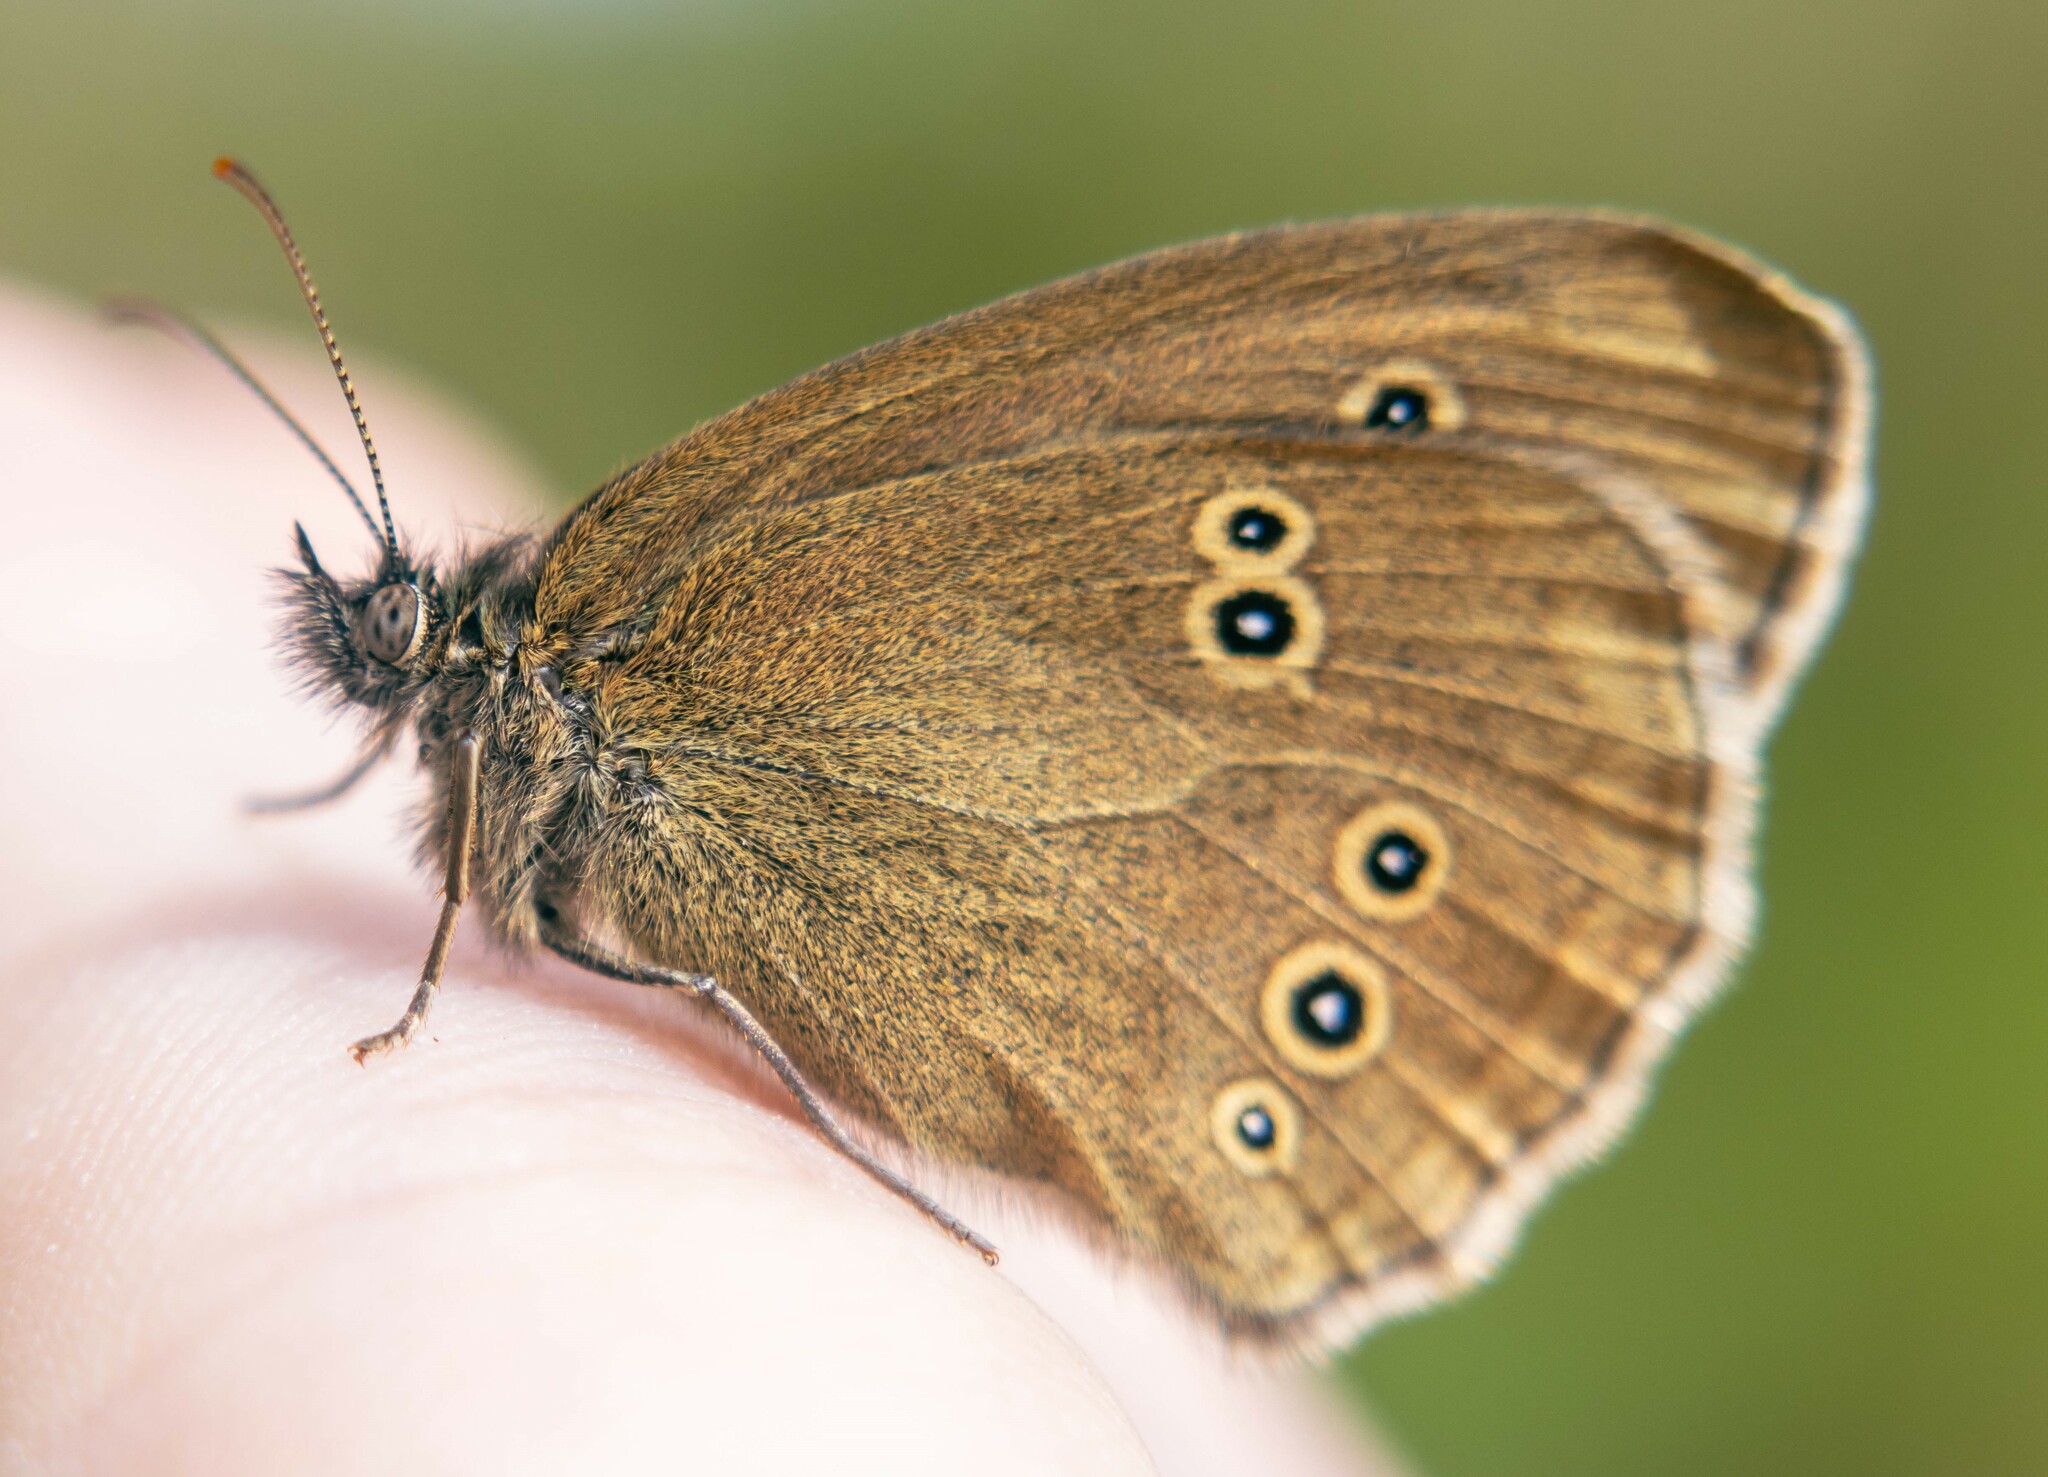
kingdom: Animalia
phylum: Arthropoda
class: Insecta
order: Lepidoptera
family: Nymphalidae
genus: Aphantopus
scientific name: Aphantopus hyperantus
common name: Ringlet
